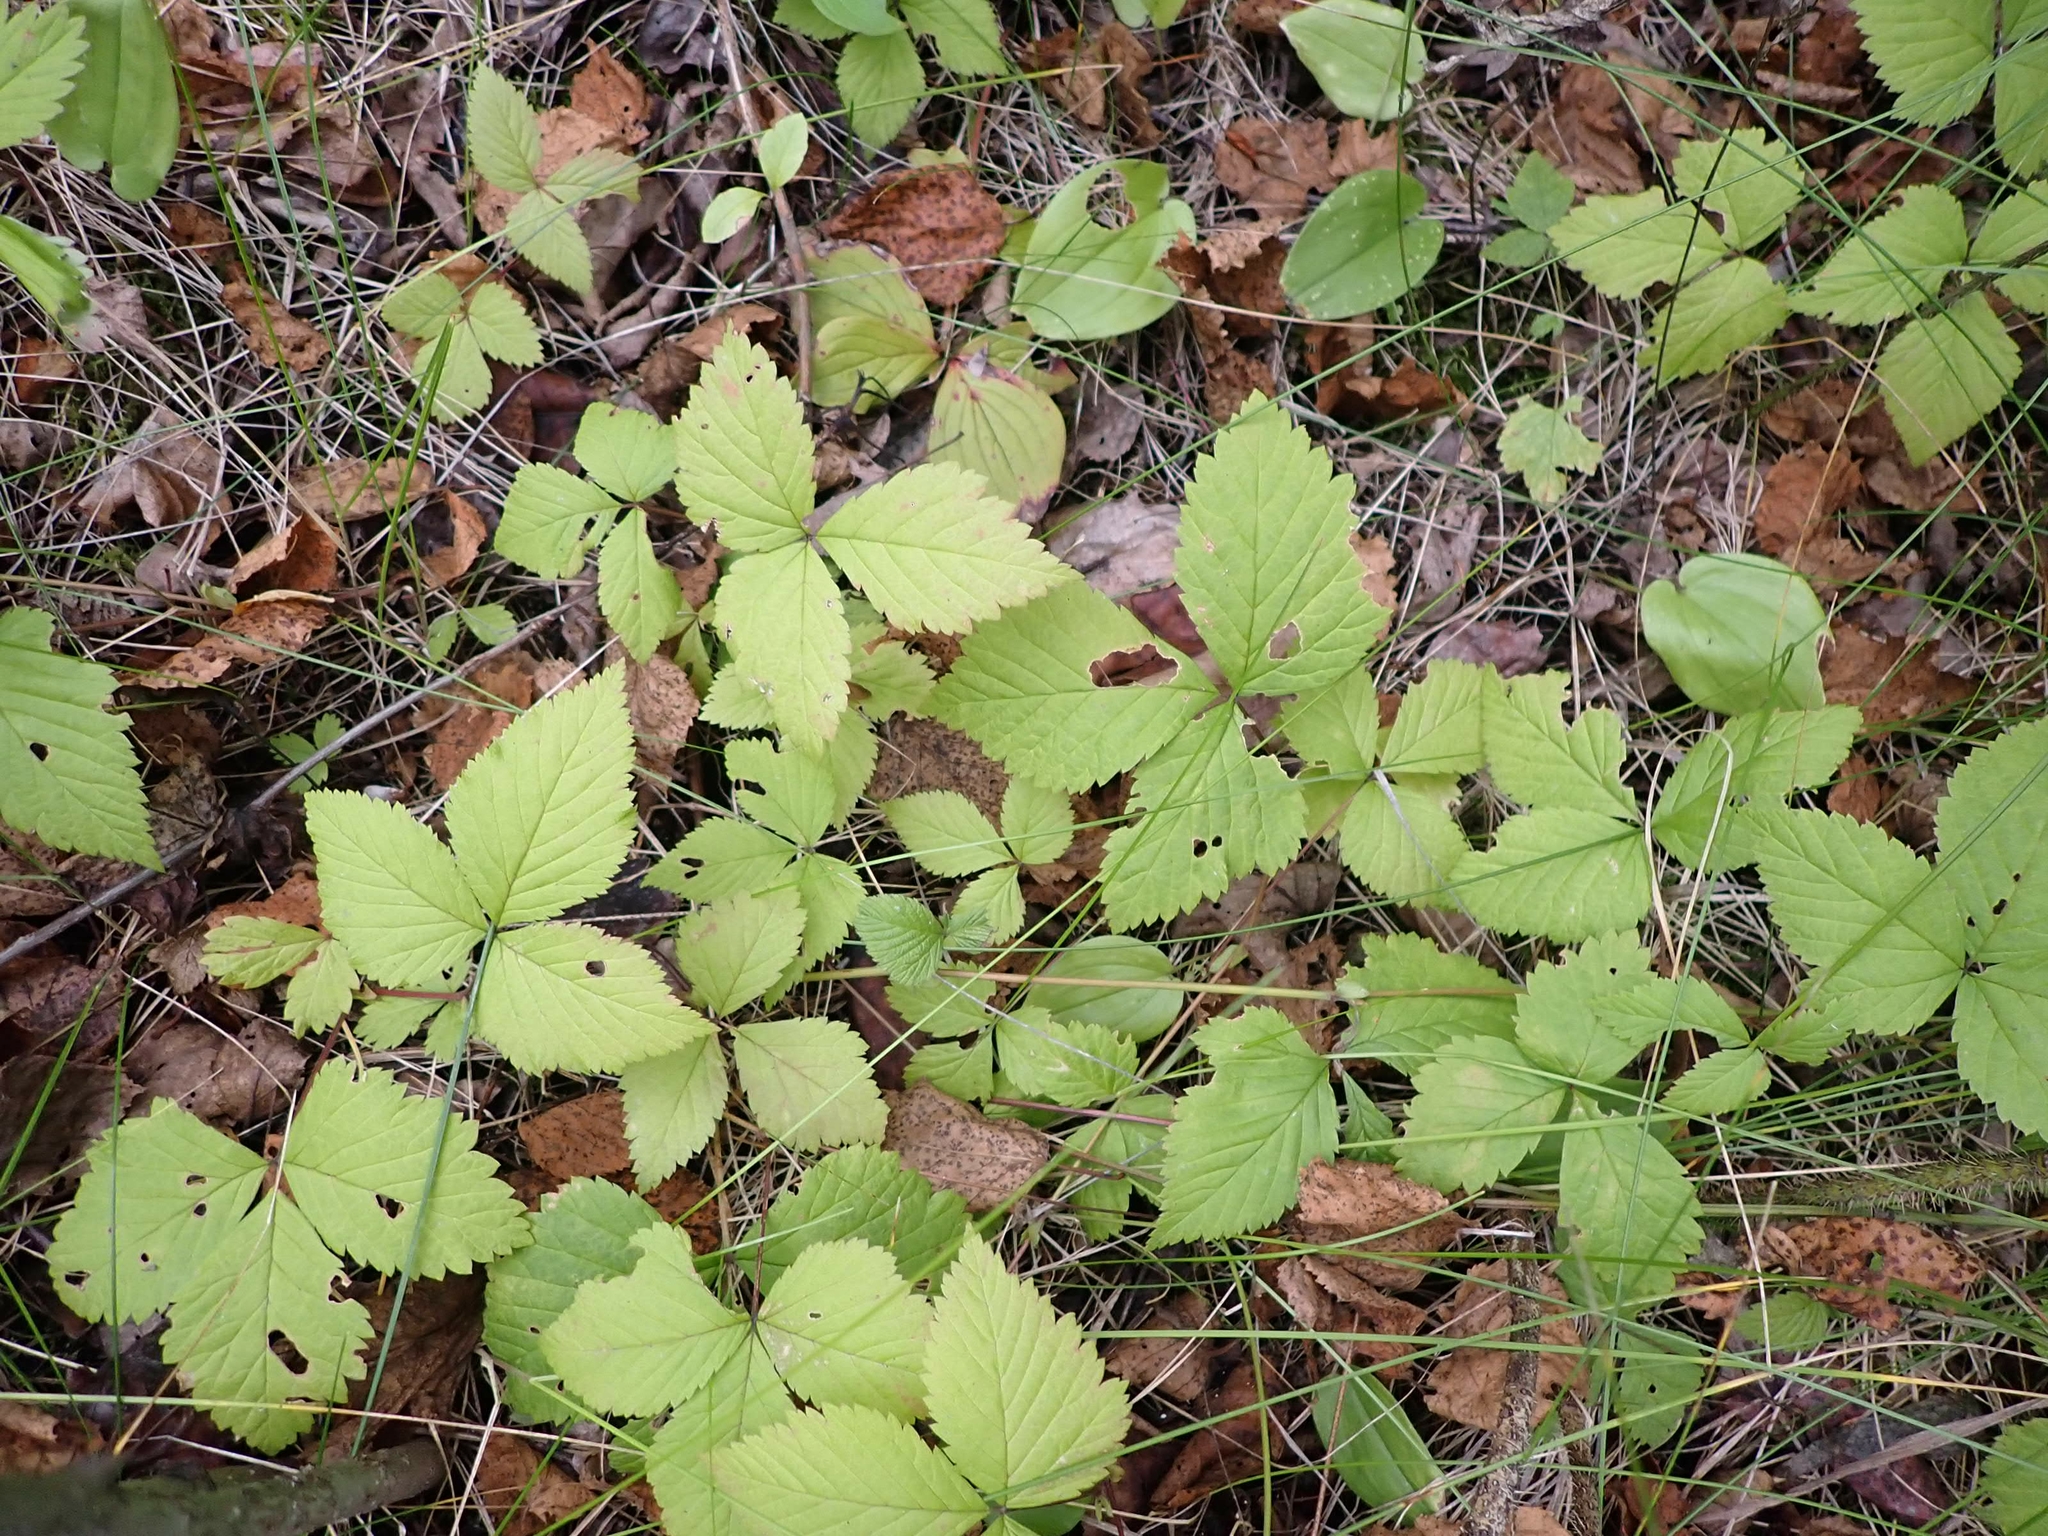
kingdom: Plantae
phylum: Tracheophyta
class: Magnoliopsida
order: Rosales
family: Rosaceae
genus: Rubus
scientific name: Rubus pubescens
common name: Dwarf raspberry
